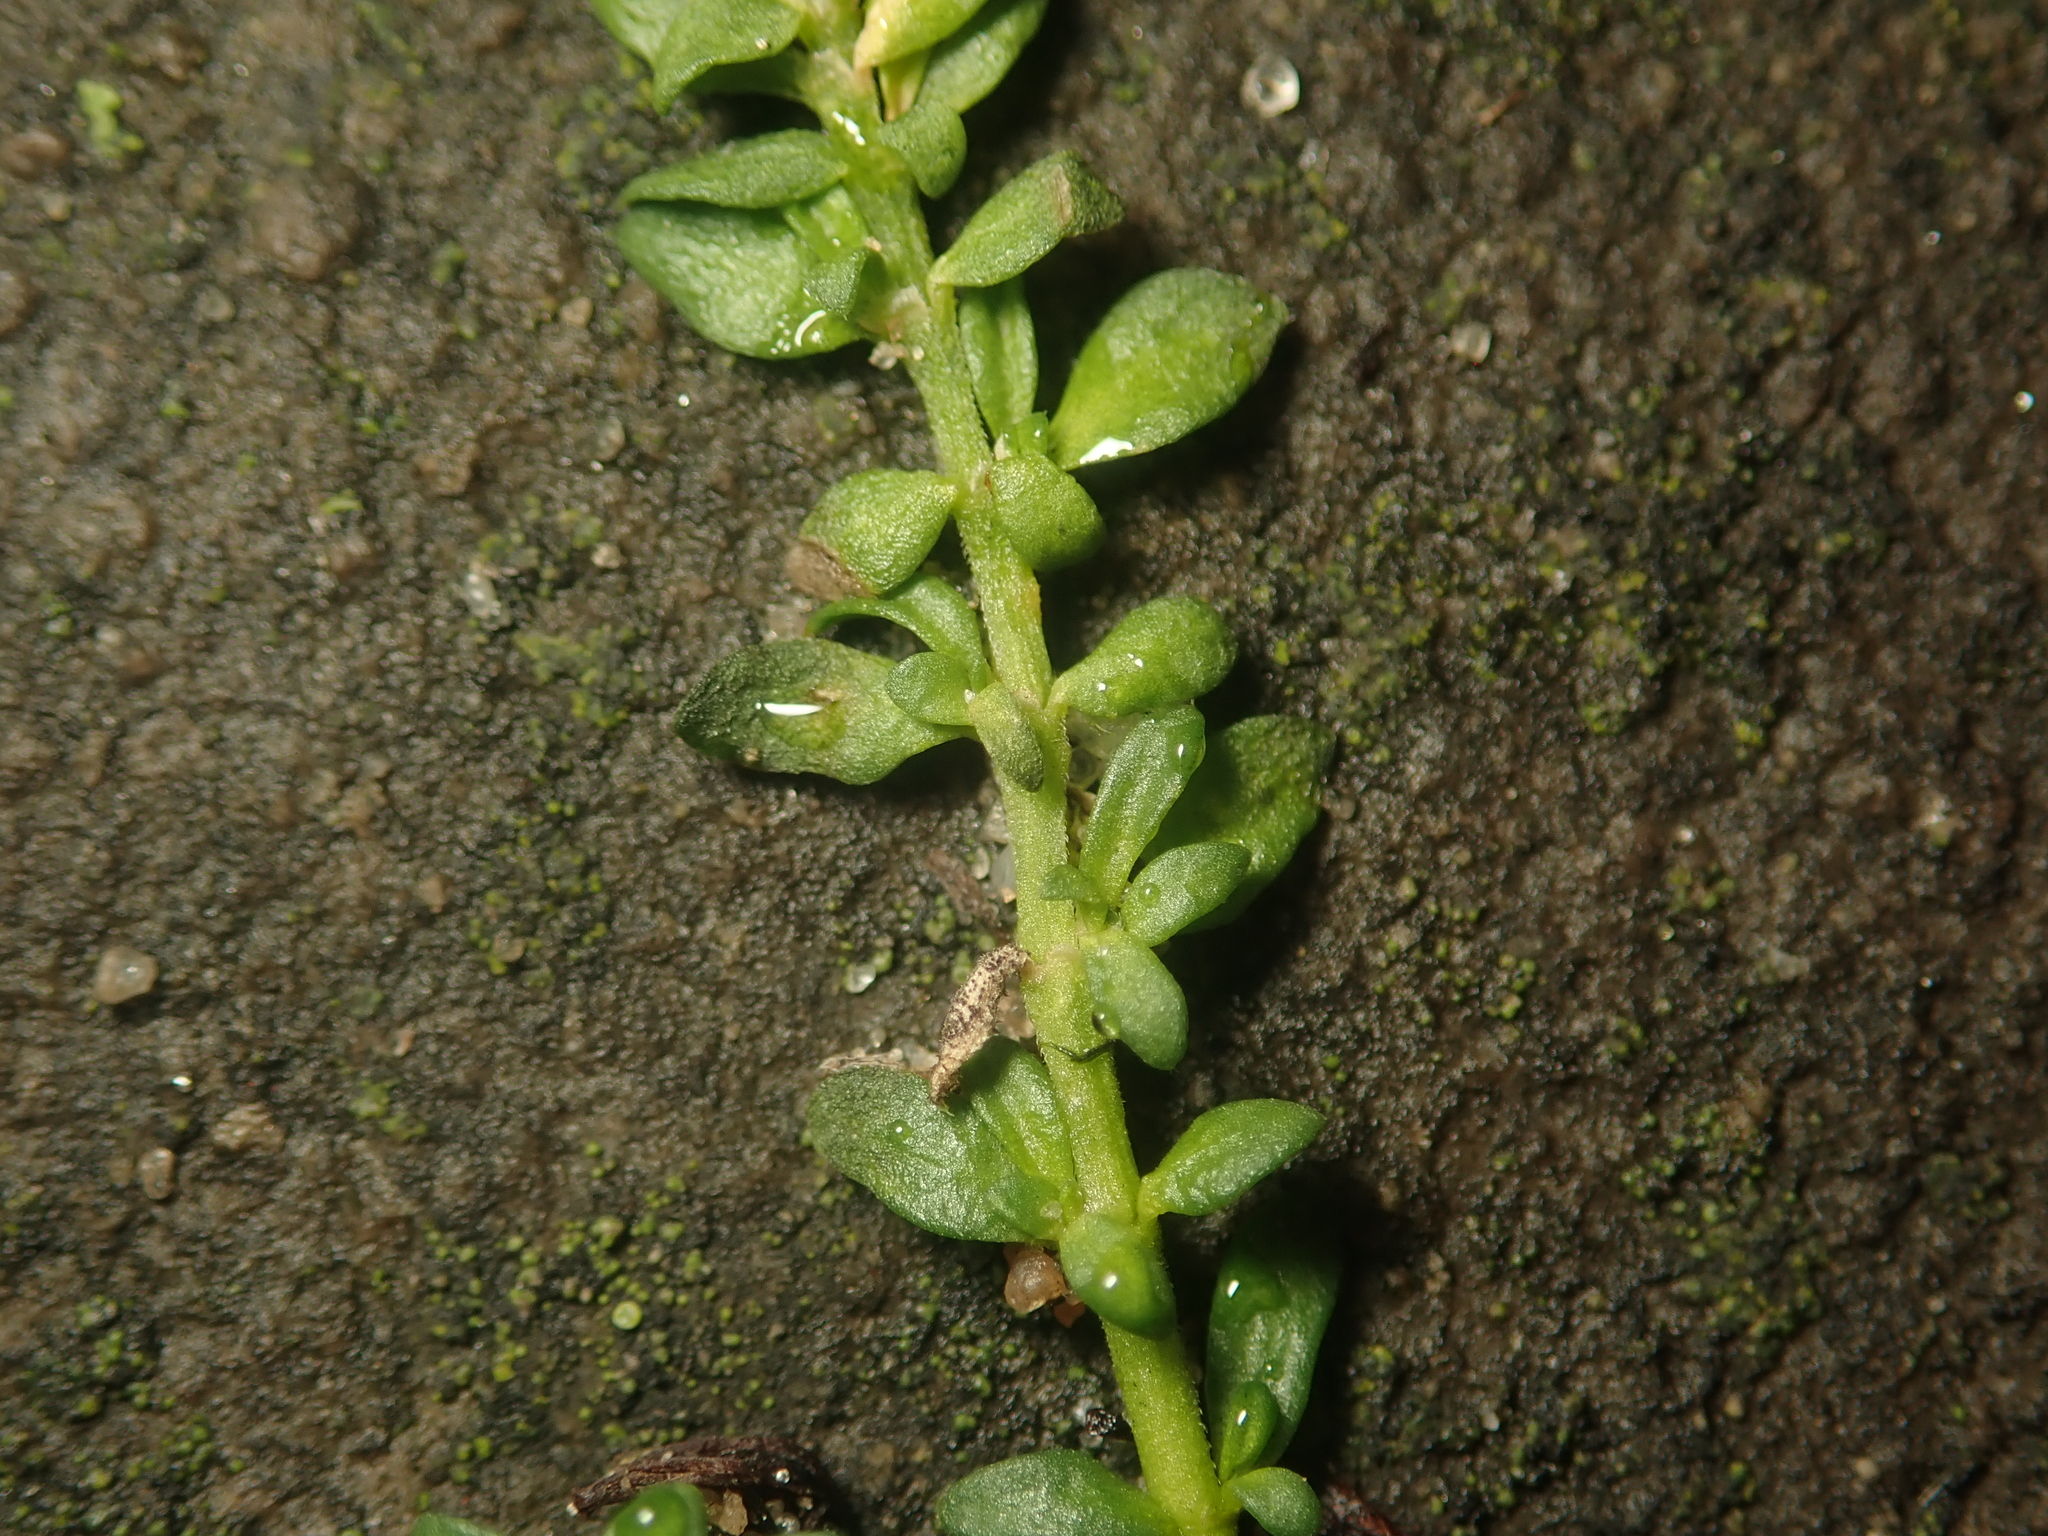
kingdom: Plantae
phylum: Tracheophyta
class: Magnoliopsida
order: Caryophyllales
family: Caryophyllaceae
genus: Herniaria
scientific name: Herniaria glabra
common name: Smooth rupturewort
